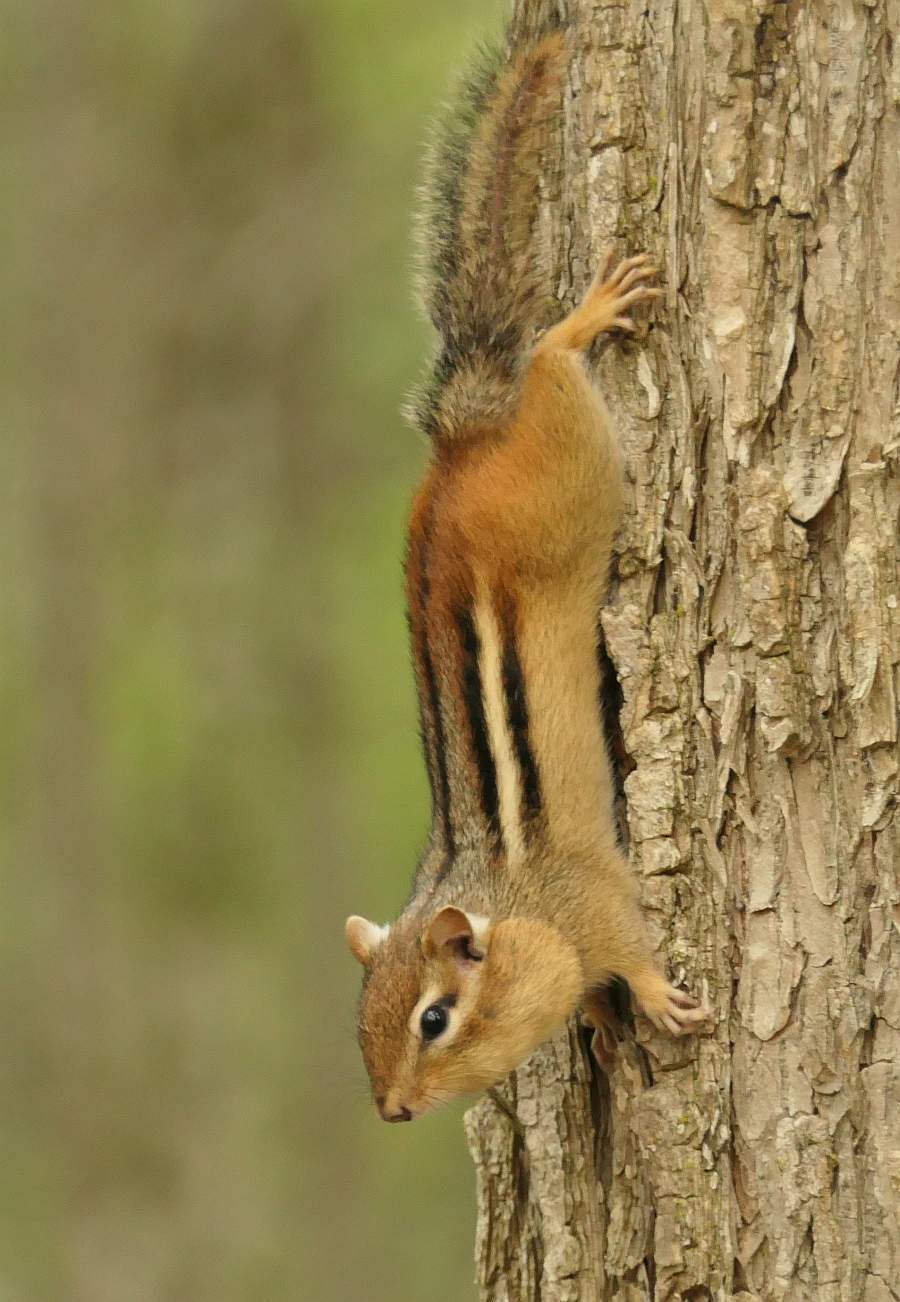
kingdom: Animalia
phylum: Chordata
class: Mammalia
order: Rodentia
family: Sciuridae
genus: Tamias
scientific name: Tamias striatus
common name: Eastern chipmunk
